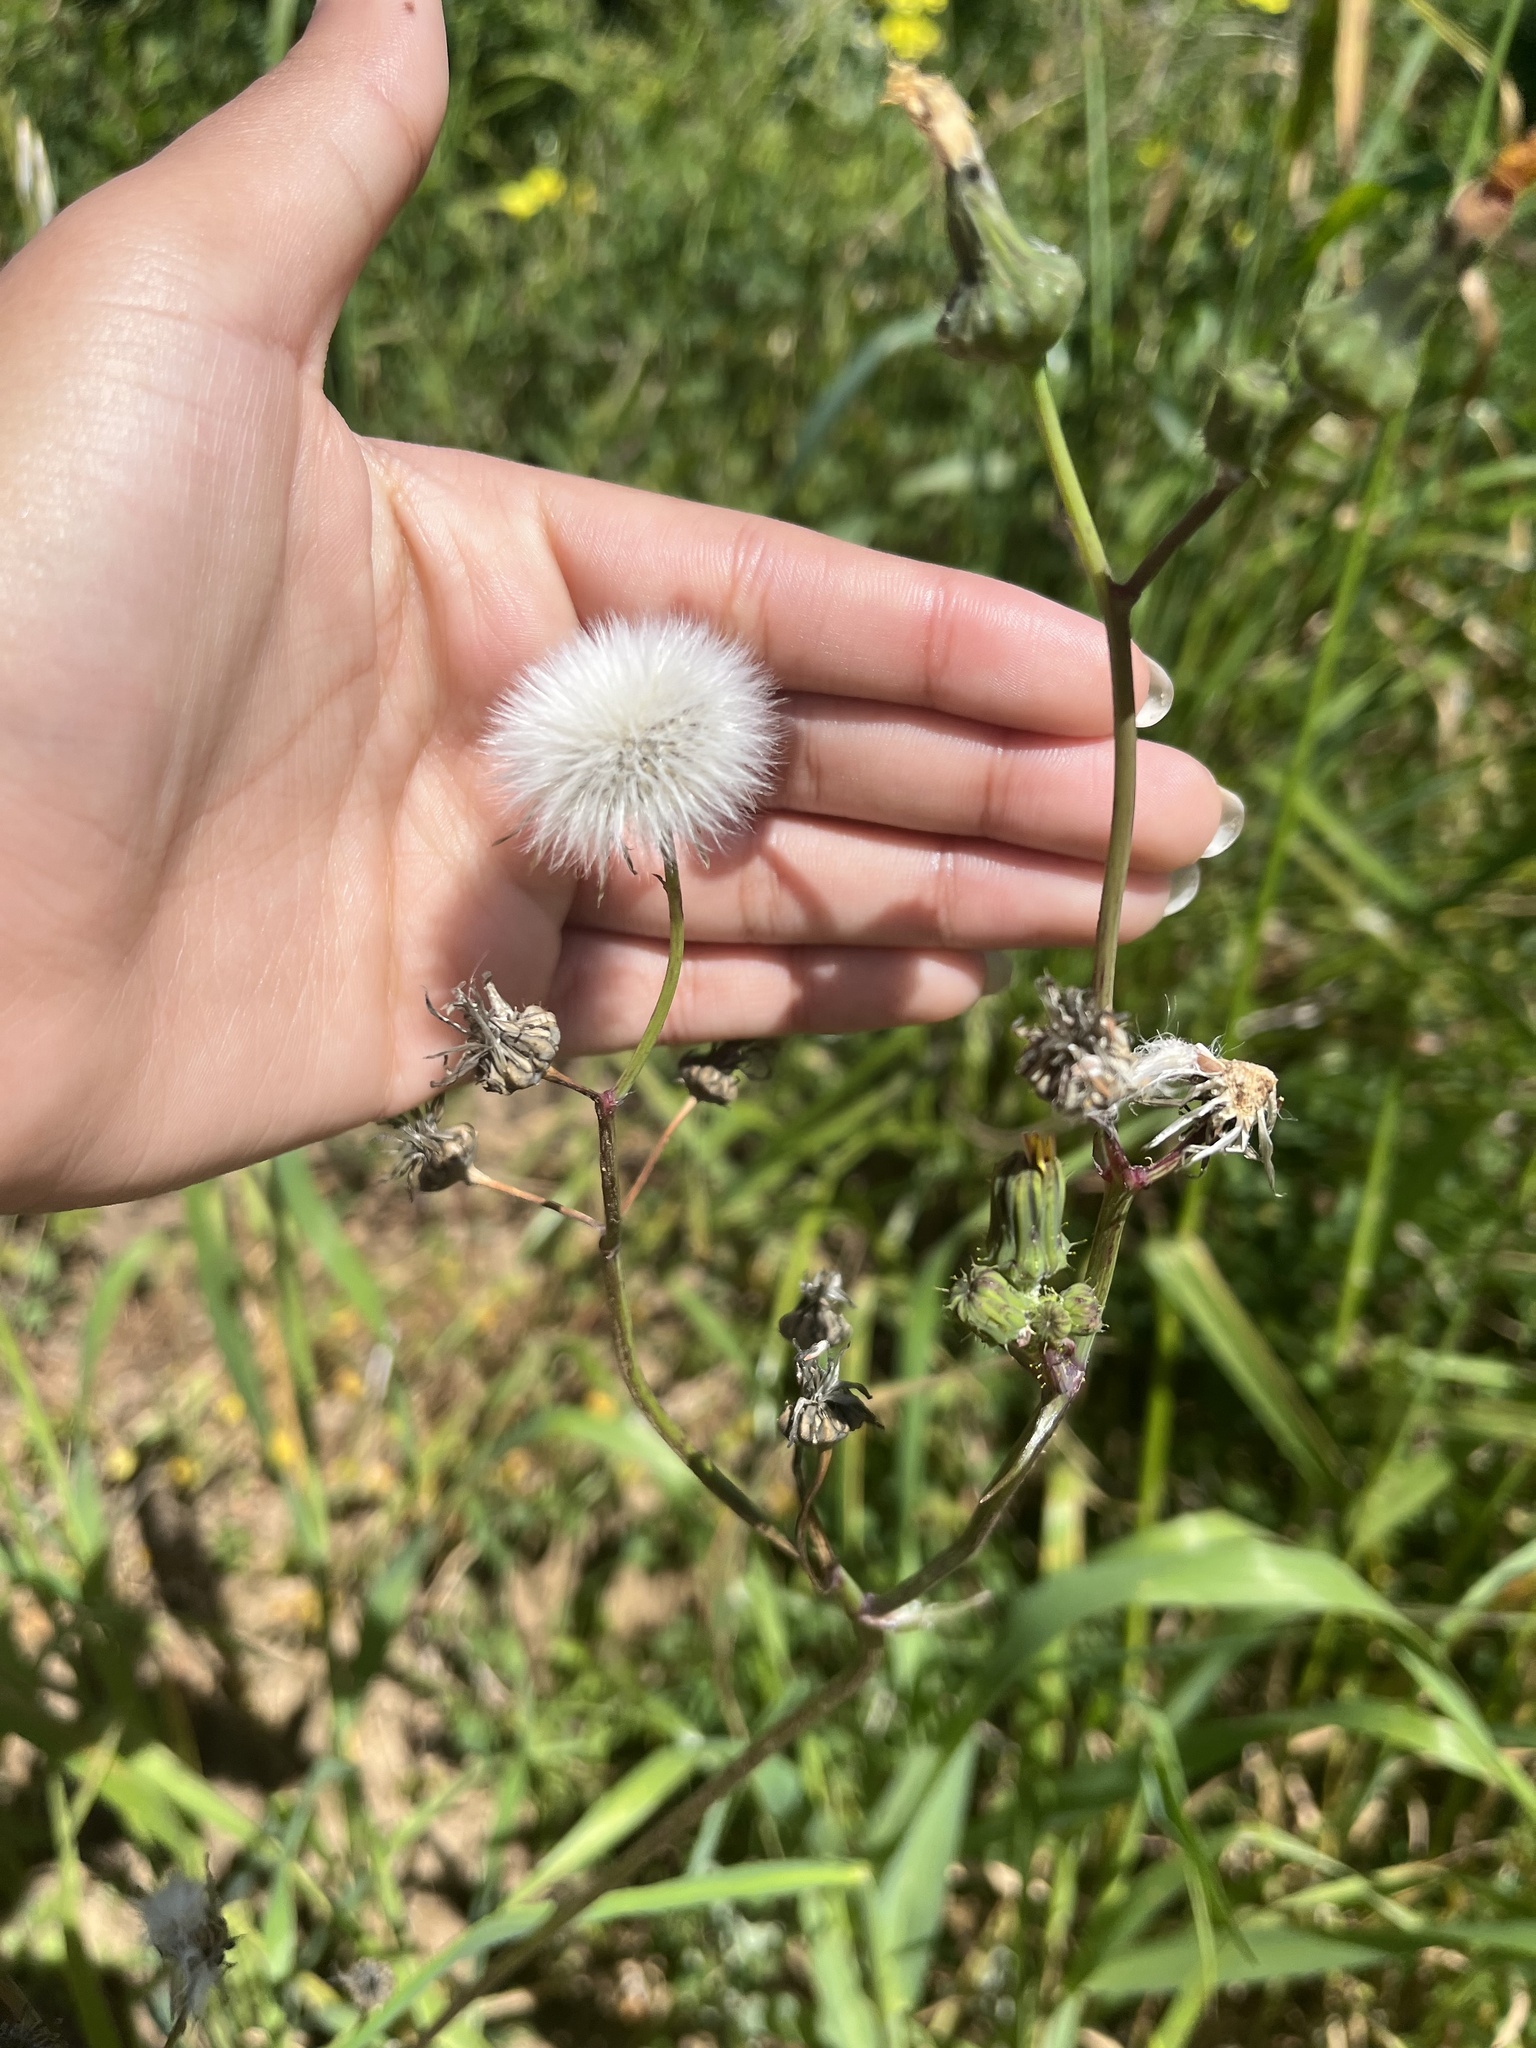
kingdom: Plantae
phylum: Tracheophyta
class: Magnoliopsida
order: Asterales
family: Asteraceae
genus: Sonchus
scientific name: Sonchus oleraceus
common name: Common sowthistle
